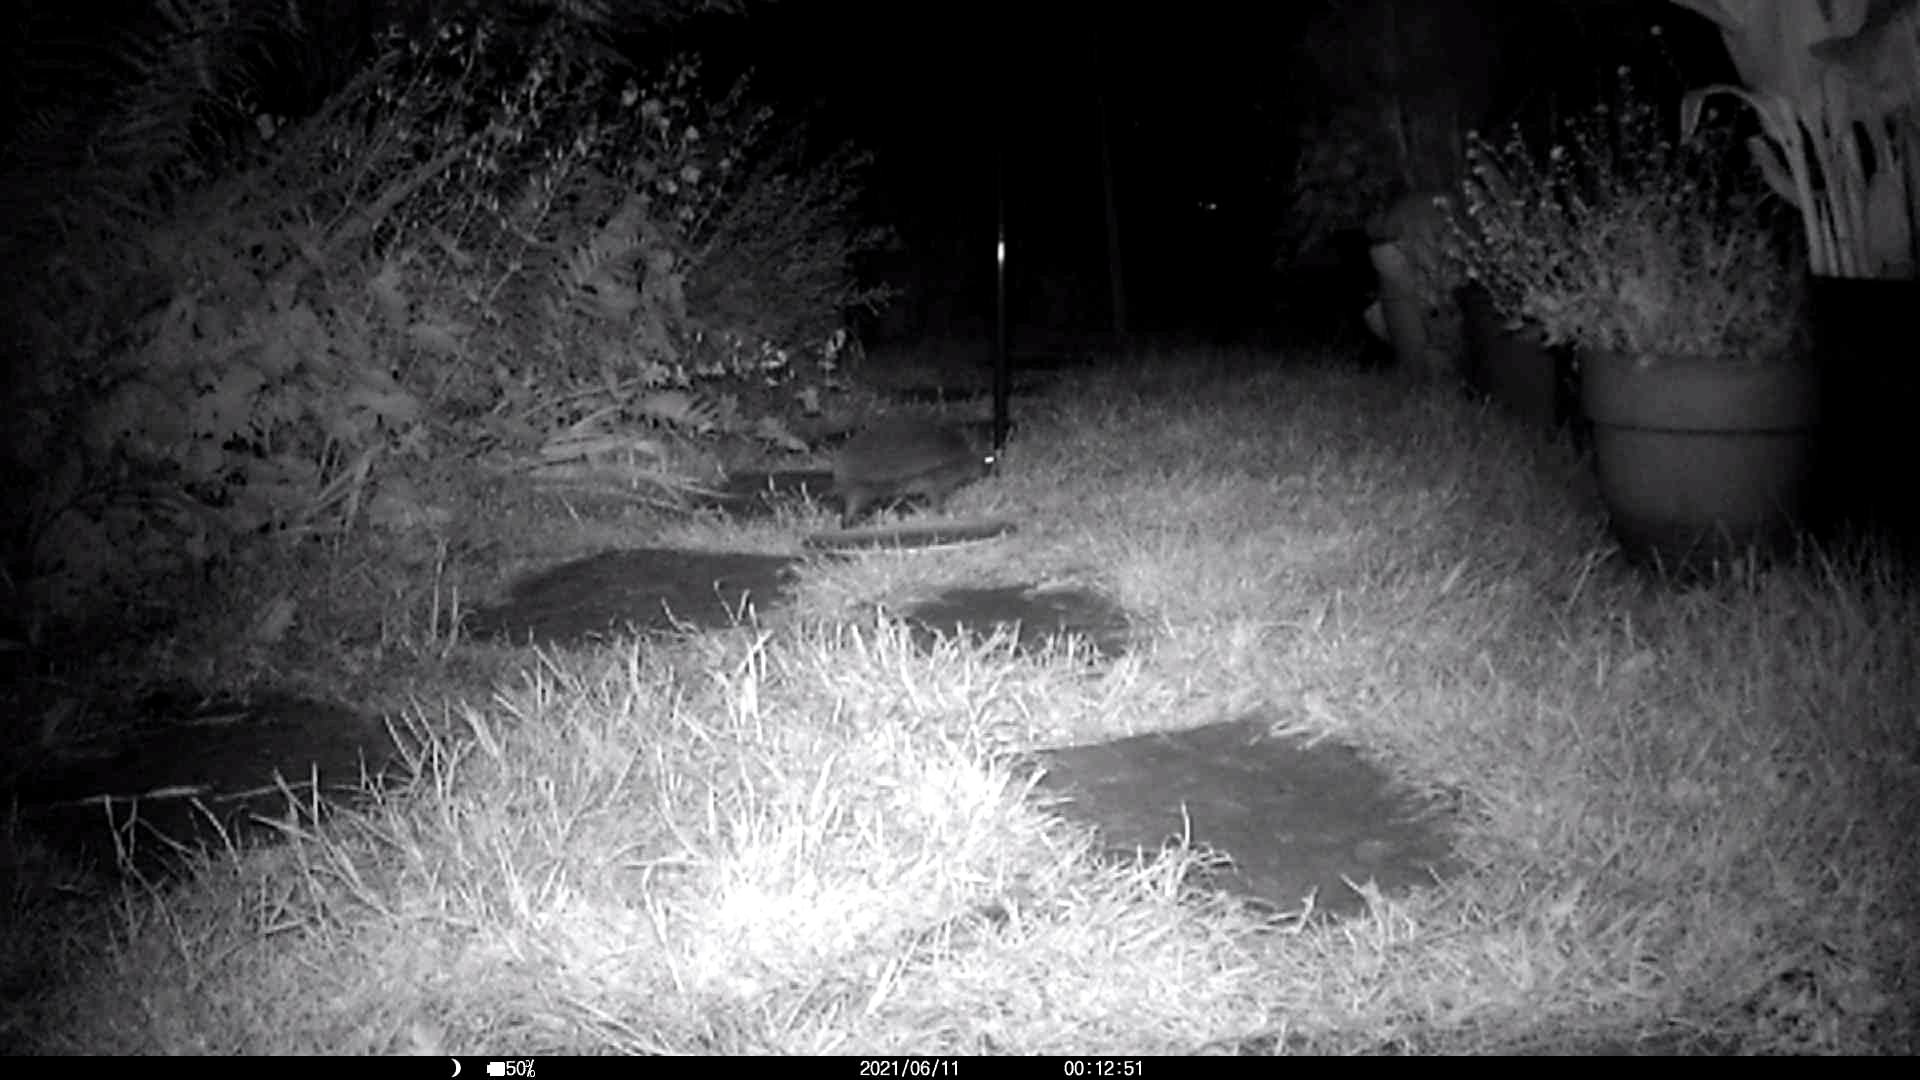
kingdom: Animalia
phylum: Chordata
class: Mammalia
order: Erinaceomorpha
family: Erinaceidae
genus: Erinaceus
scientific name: Erinaceus europaeus
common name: West european hedgehog
